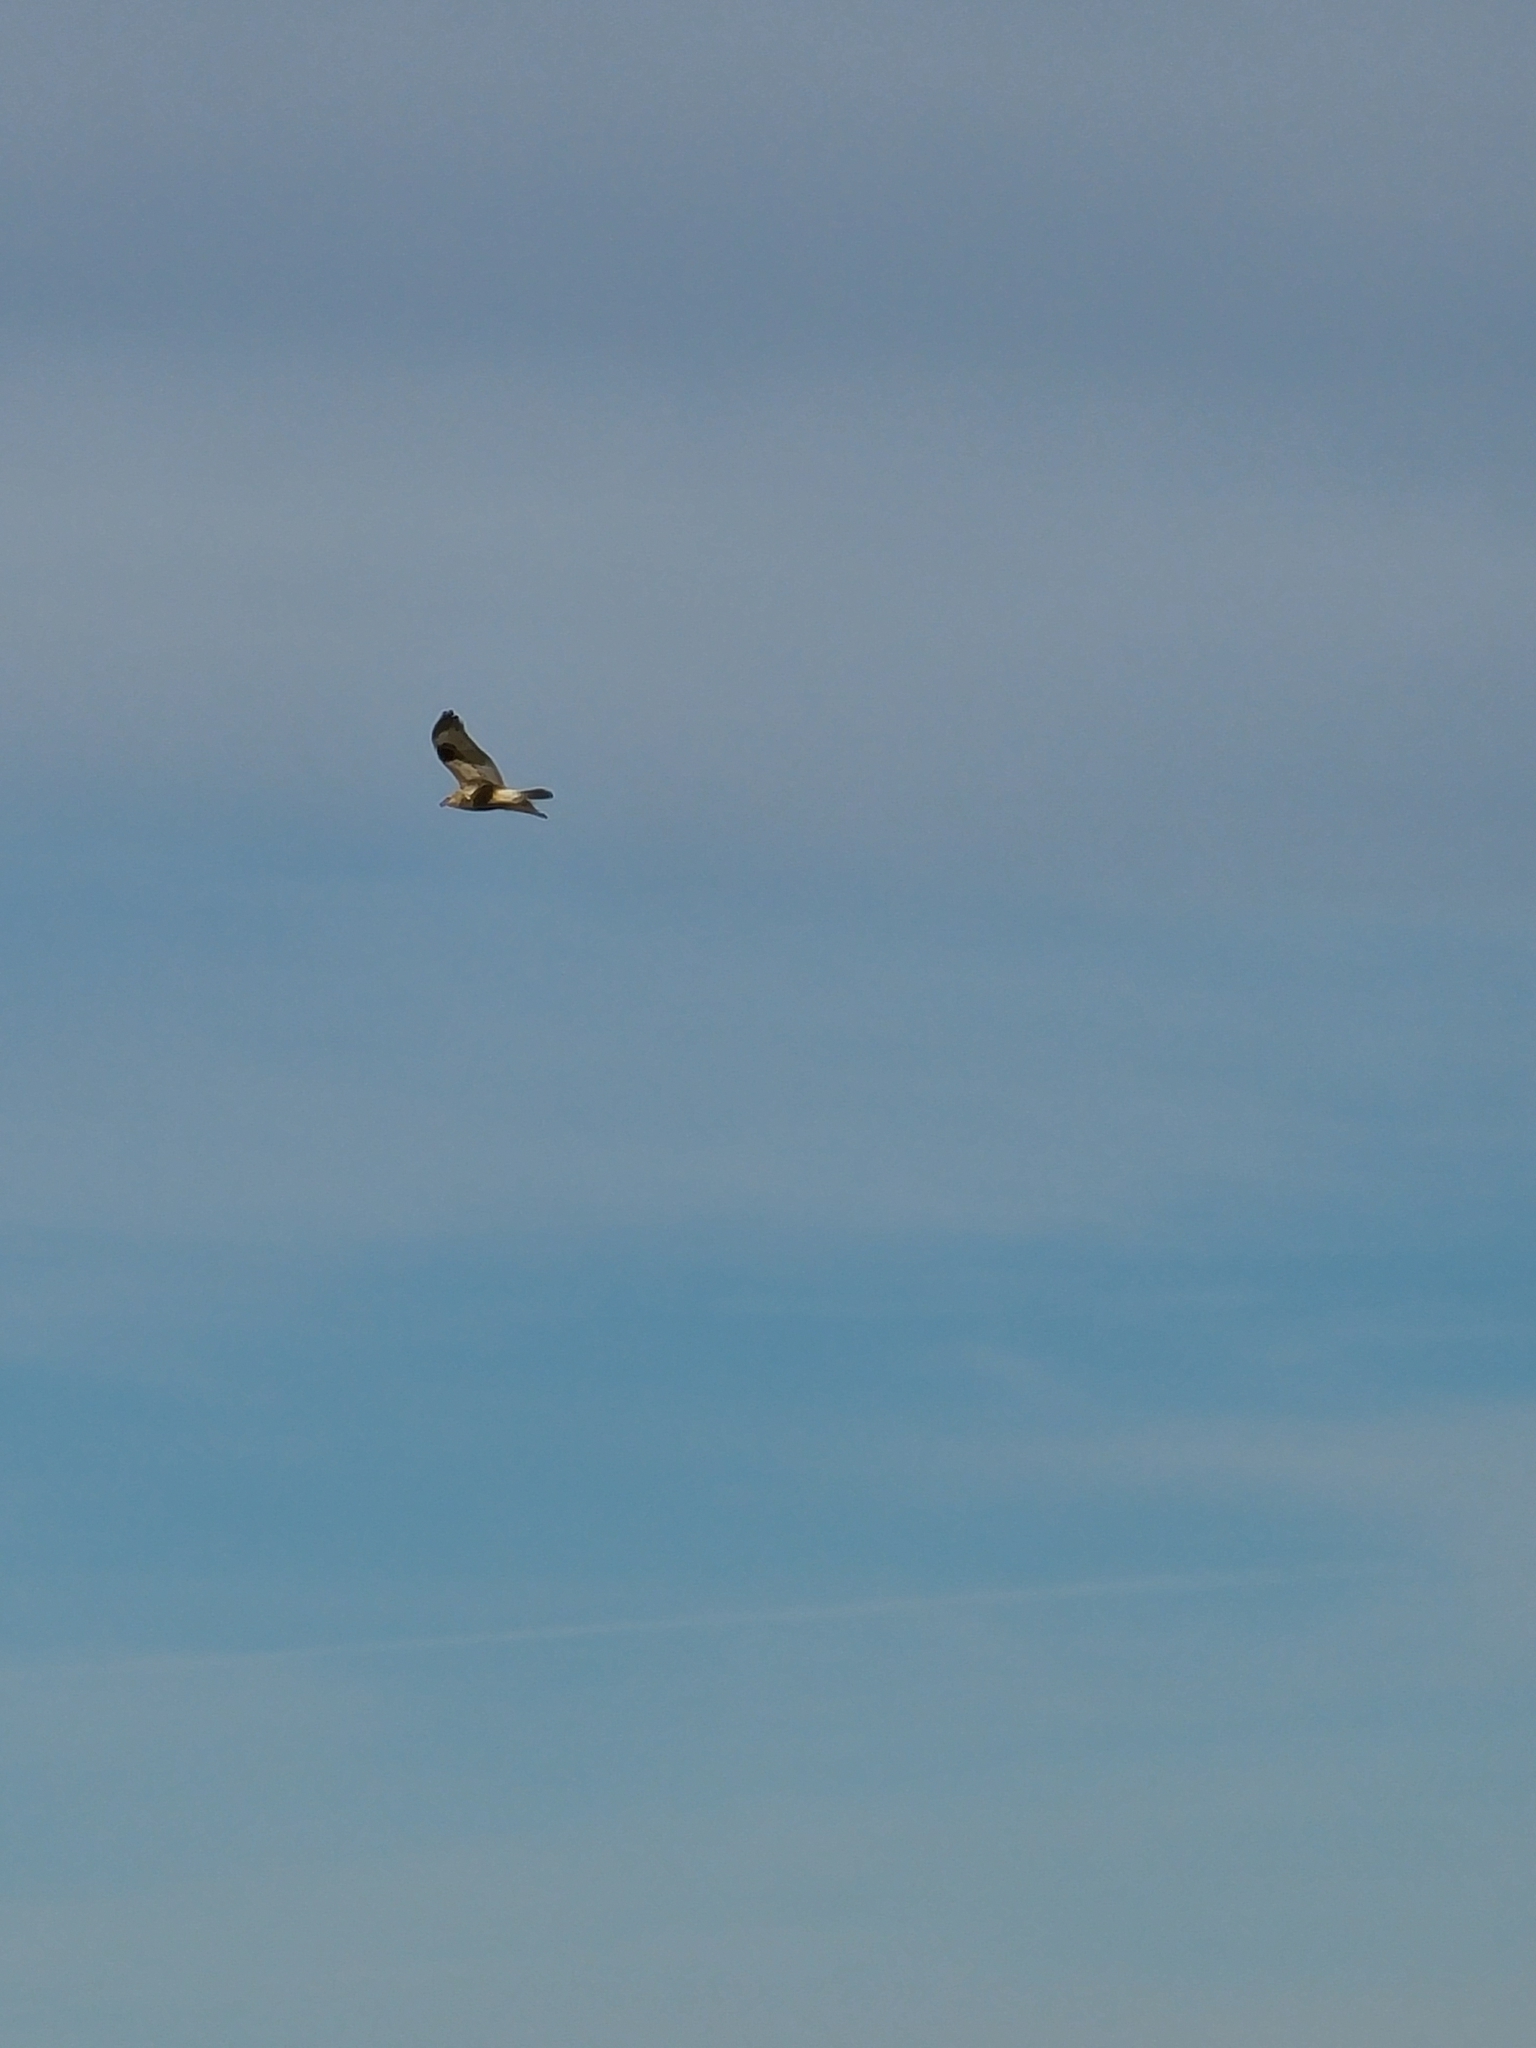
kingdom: Animalia
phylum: Chordata
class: Aves
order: Accipitriformes
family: Accipitridae
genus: Buteo
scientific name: Buteo lagopus
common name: Rough-legged buzzard
